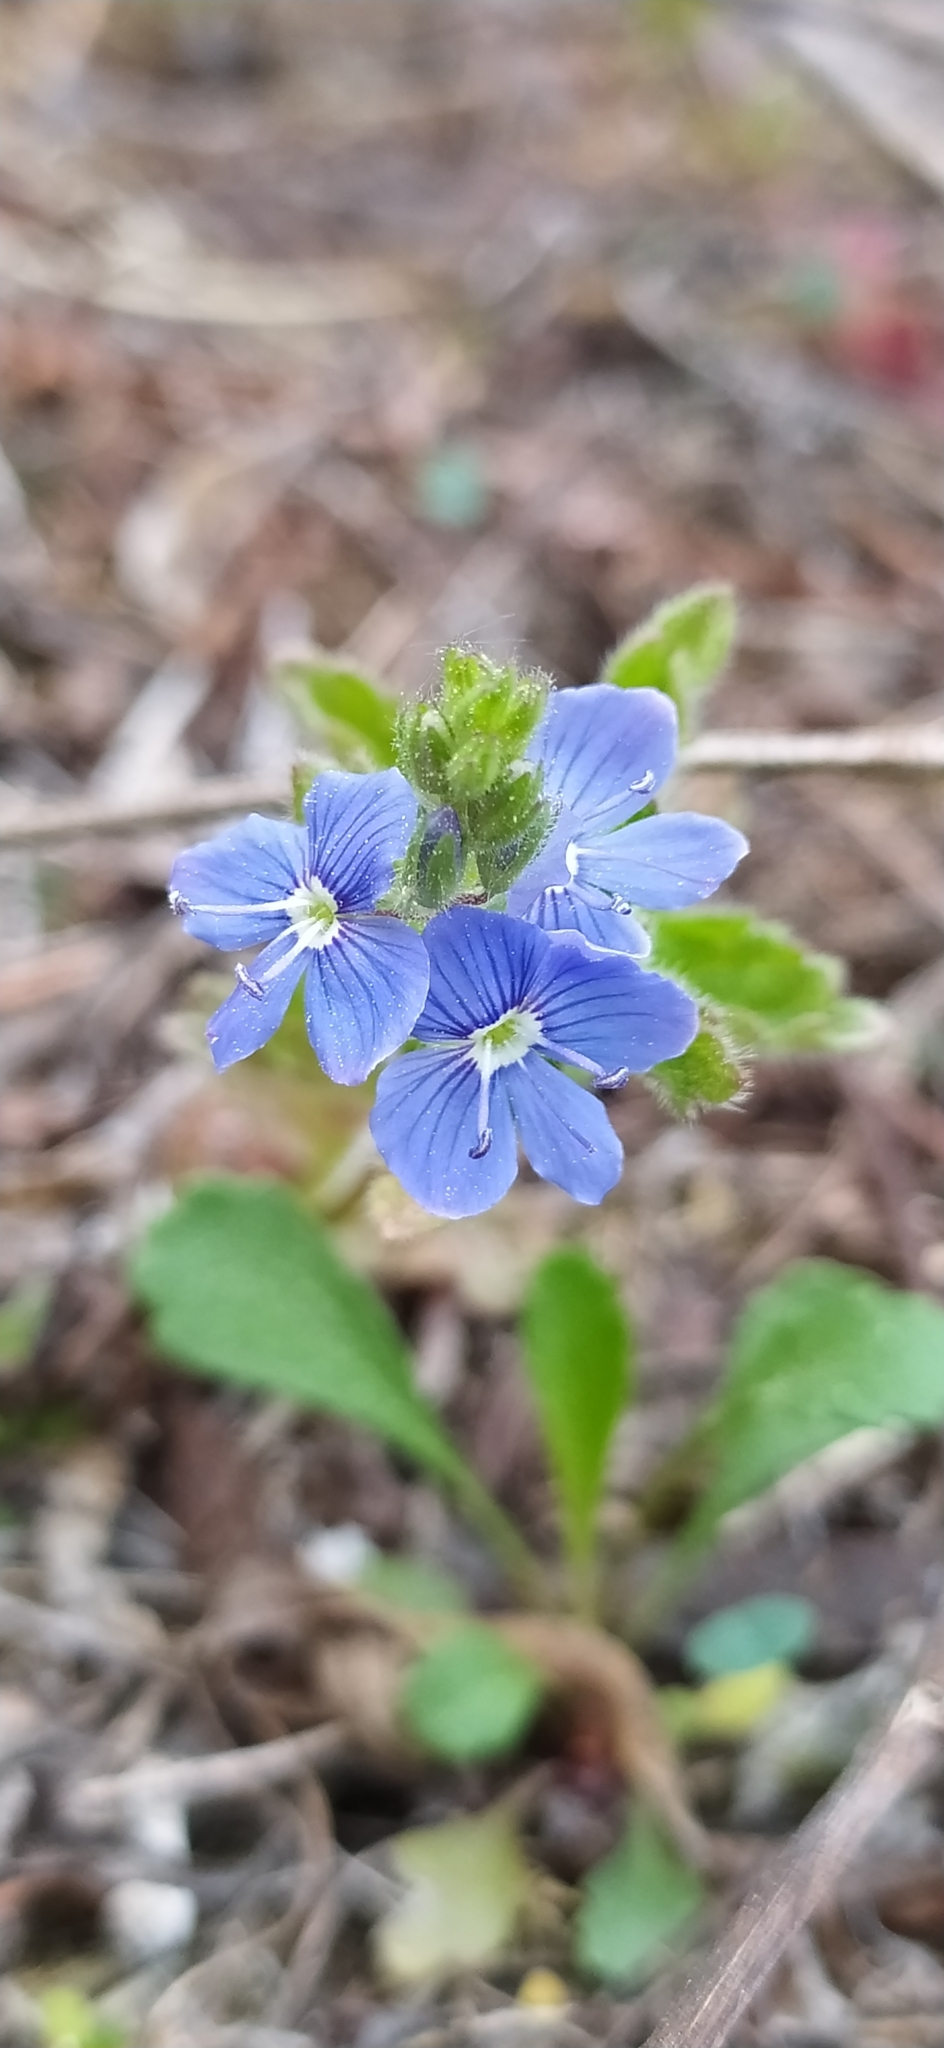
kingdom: Plantae
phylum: Tracheophyta
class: Magnoliopsida
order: Lamiales
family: Plantaginaceae
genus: Veronica
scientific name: Veronica chamaedrys
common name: Germander speedwell
